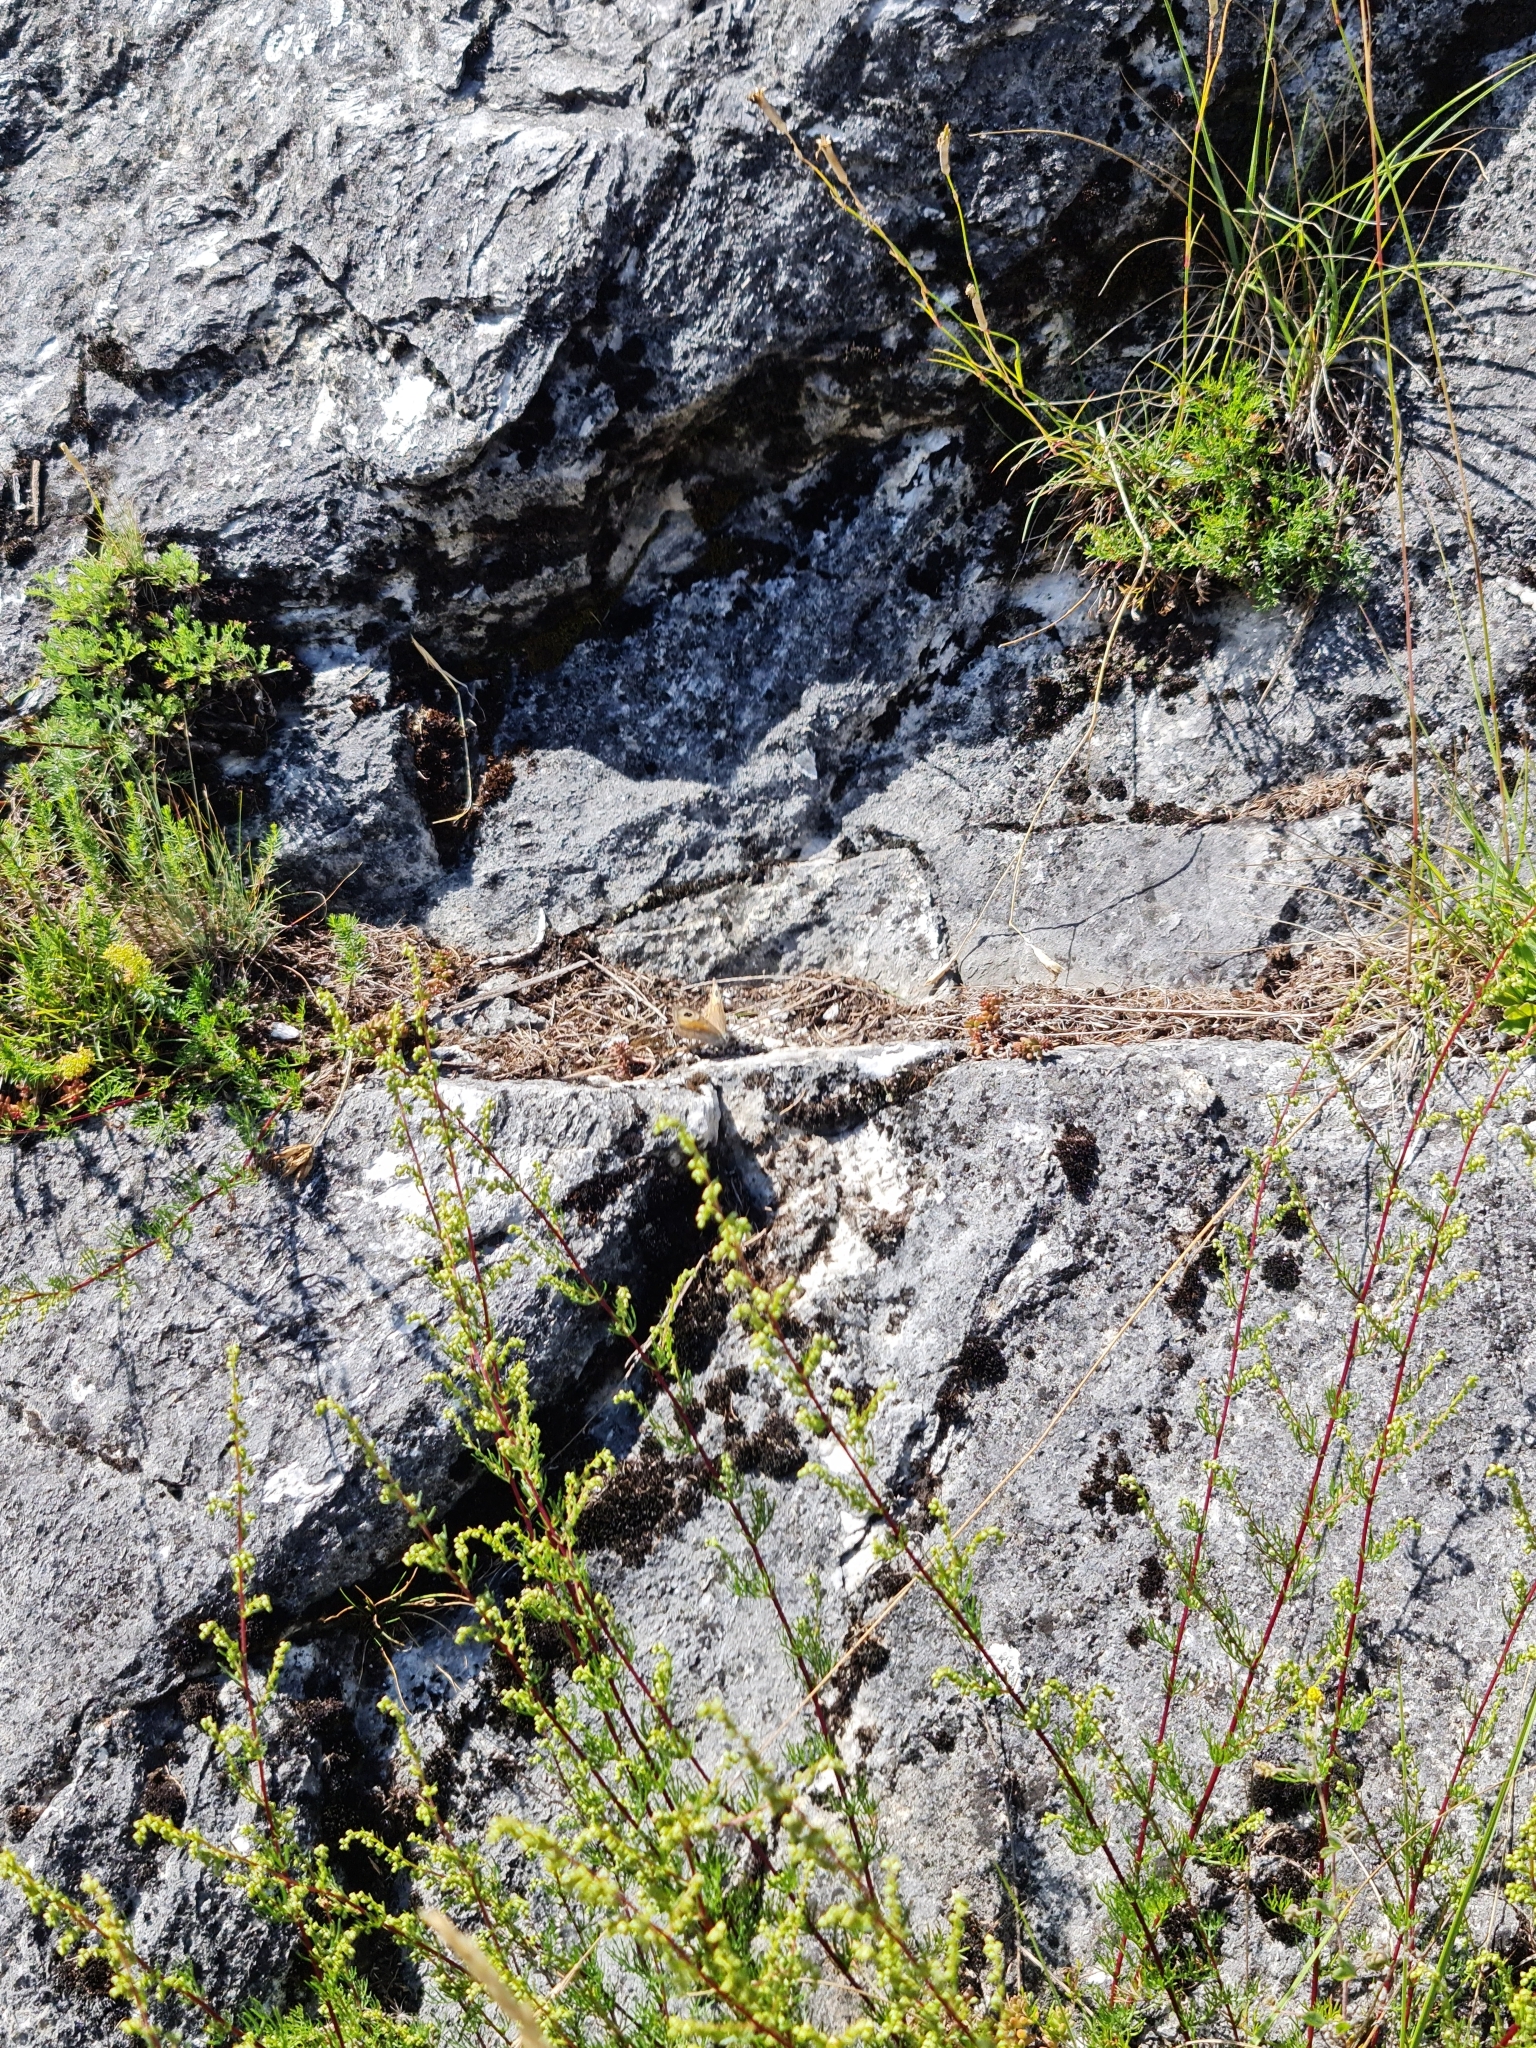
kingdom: Plantae
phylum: Tracheophyta
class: Liliopsida
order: Asparagales
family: Asparagaceae
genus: Polygonatum
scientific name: Polygonatum odoratum
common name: Angular solomon's-seal
